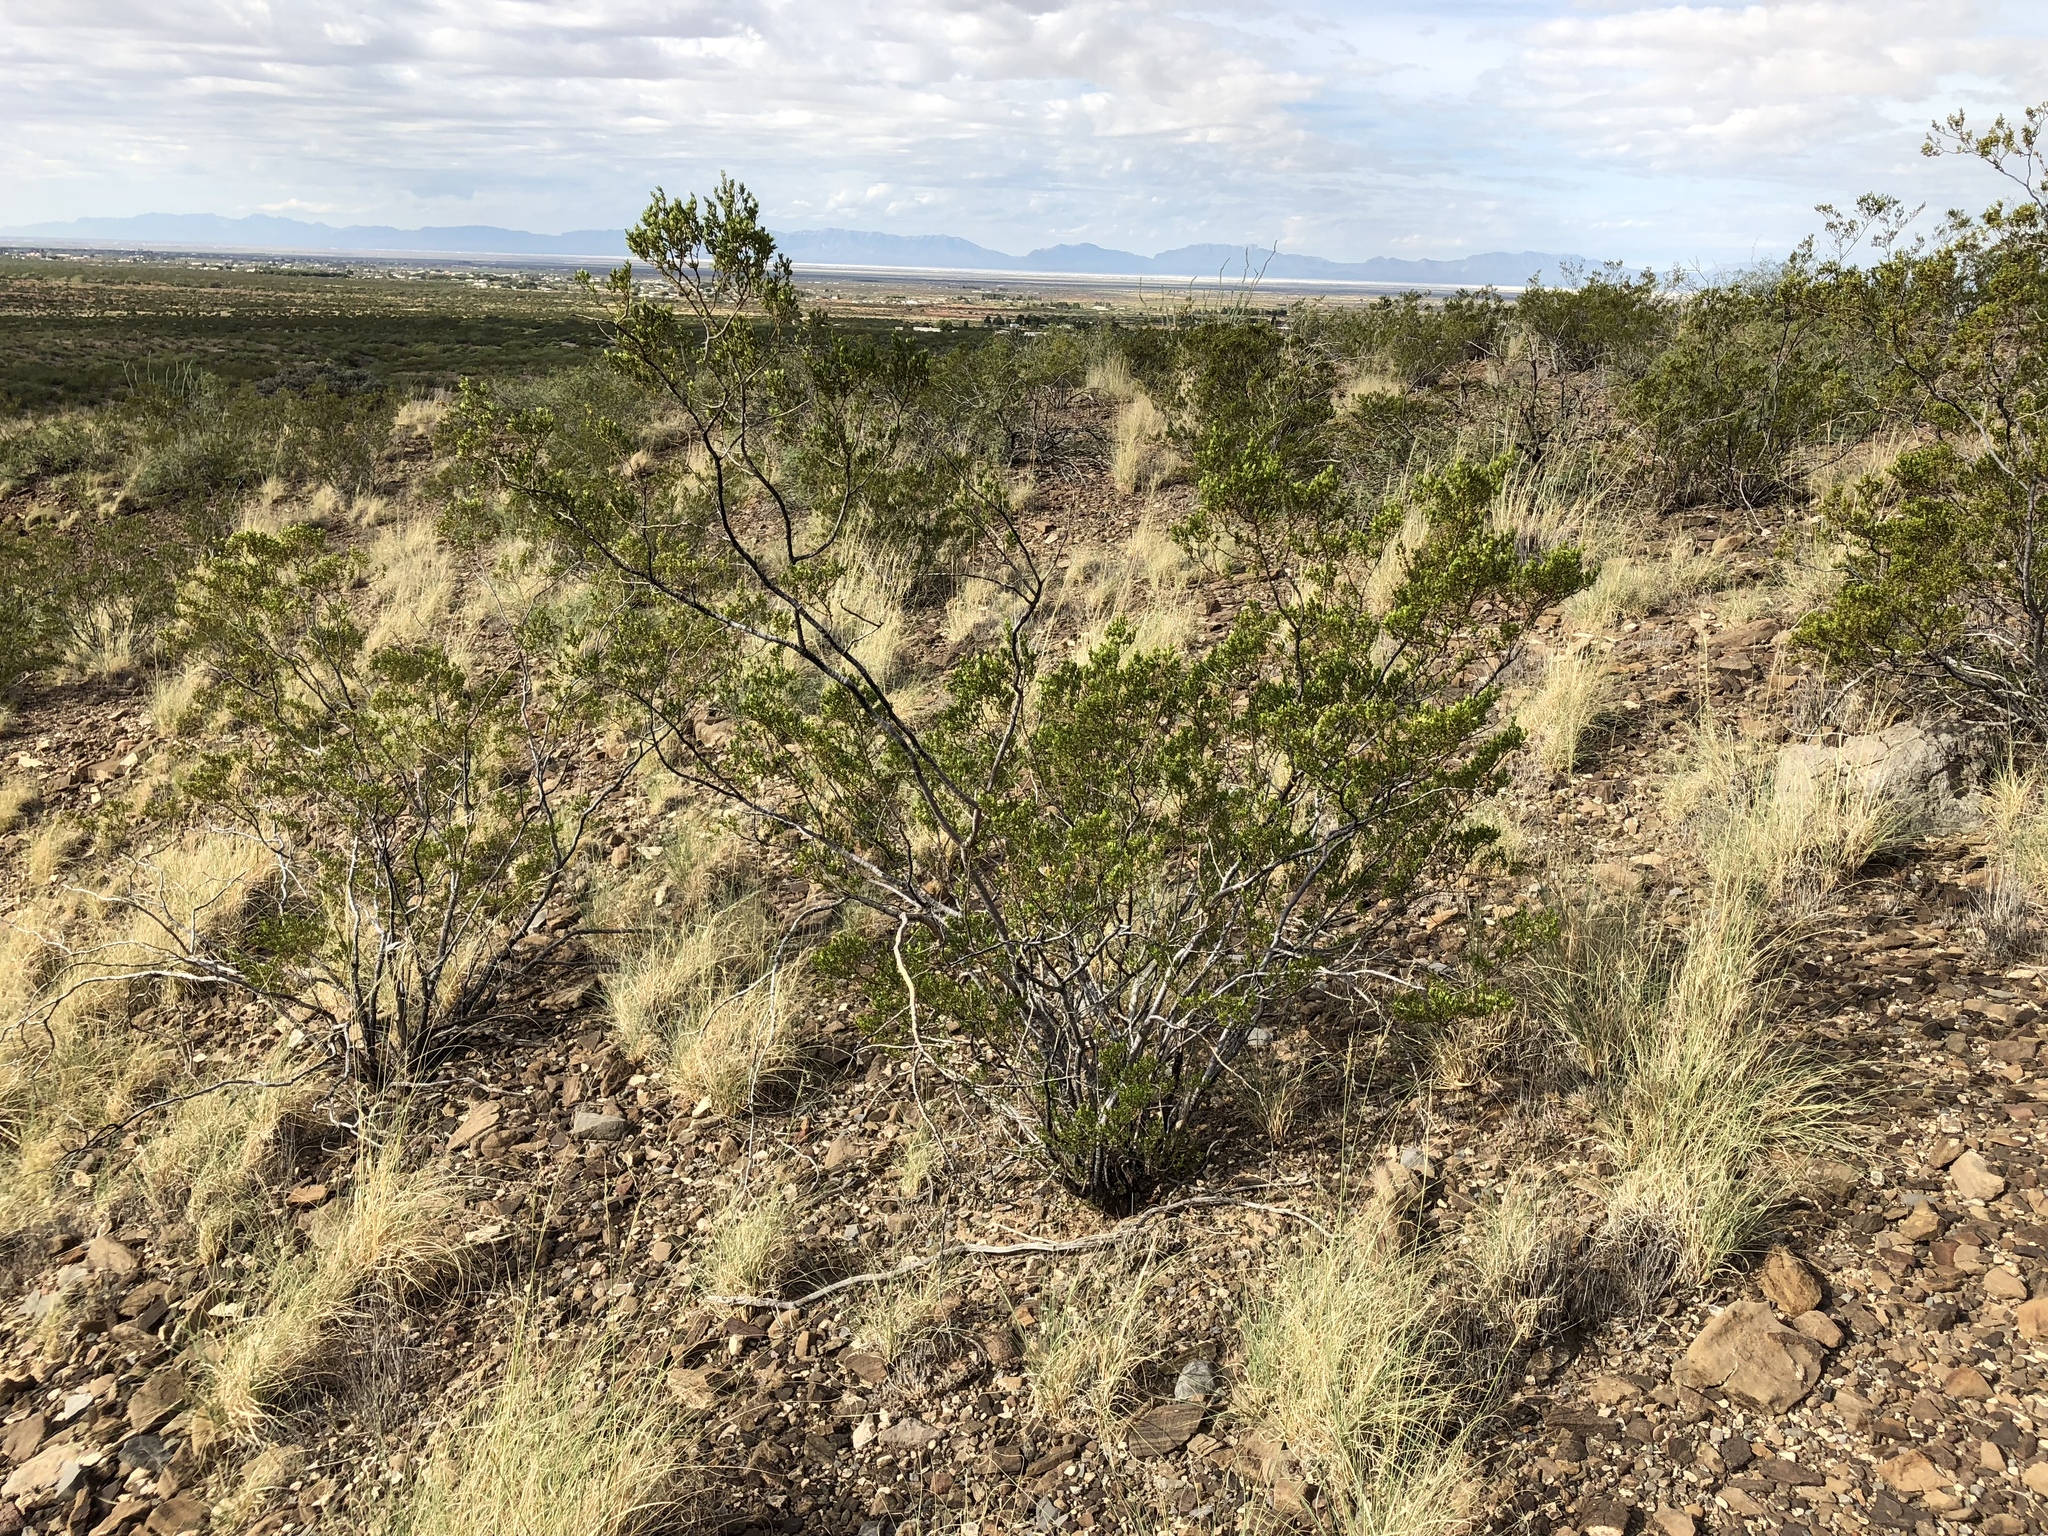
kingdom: Plantae
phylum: Tracheophyta
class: Magnoliopsida
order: Zygophyllales
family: Zygophyllaceae
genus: Larrea
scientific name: Larrea tridentata
